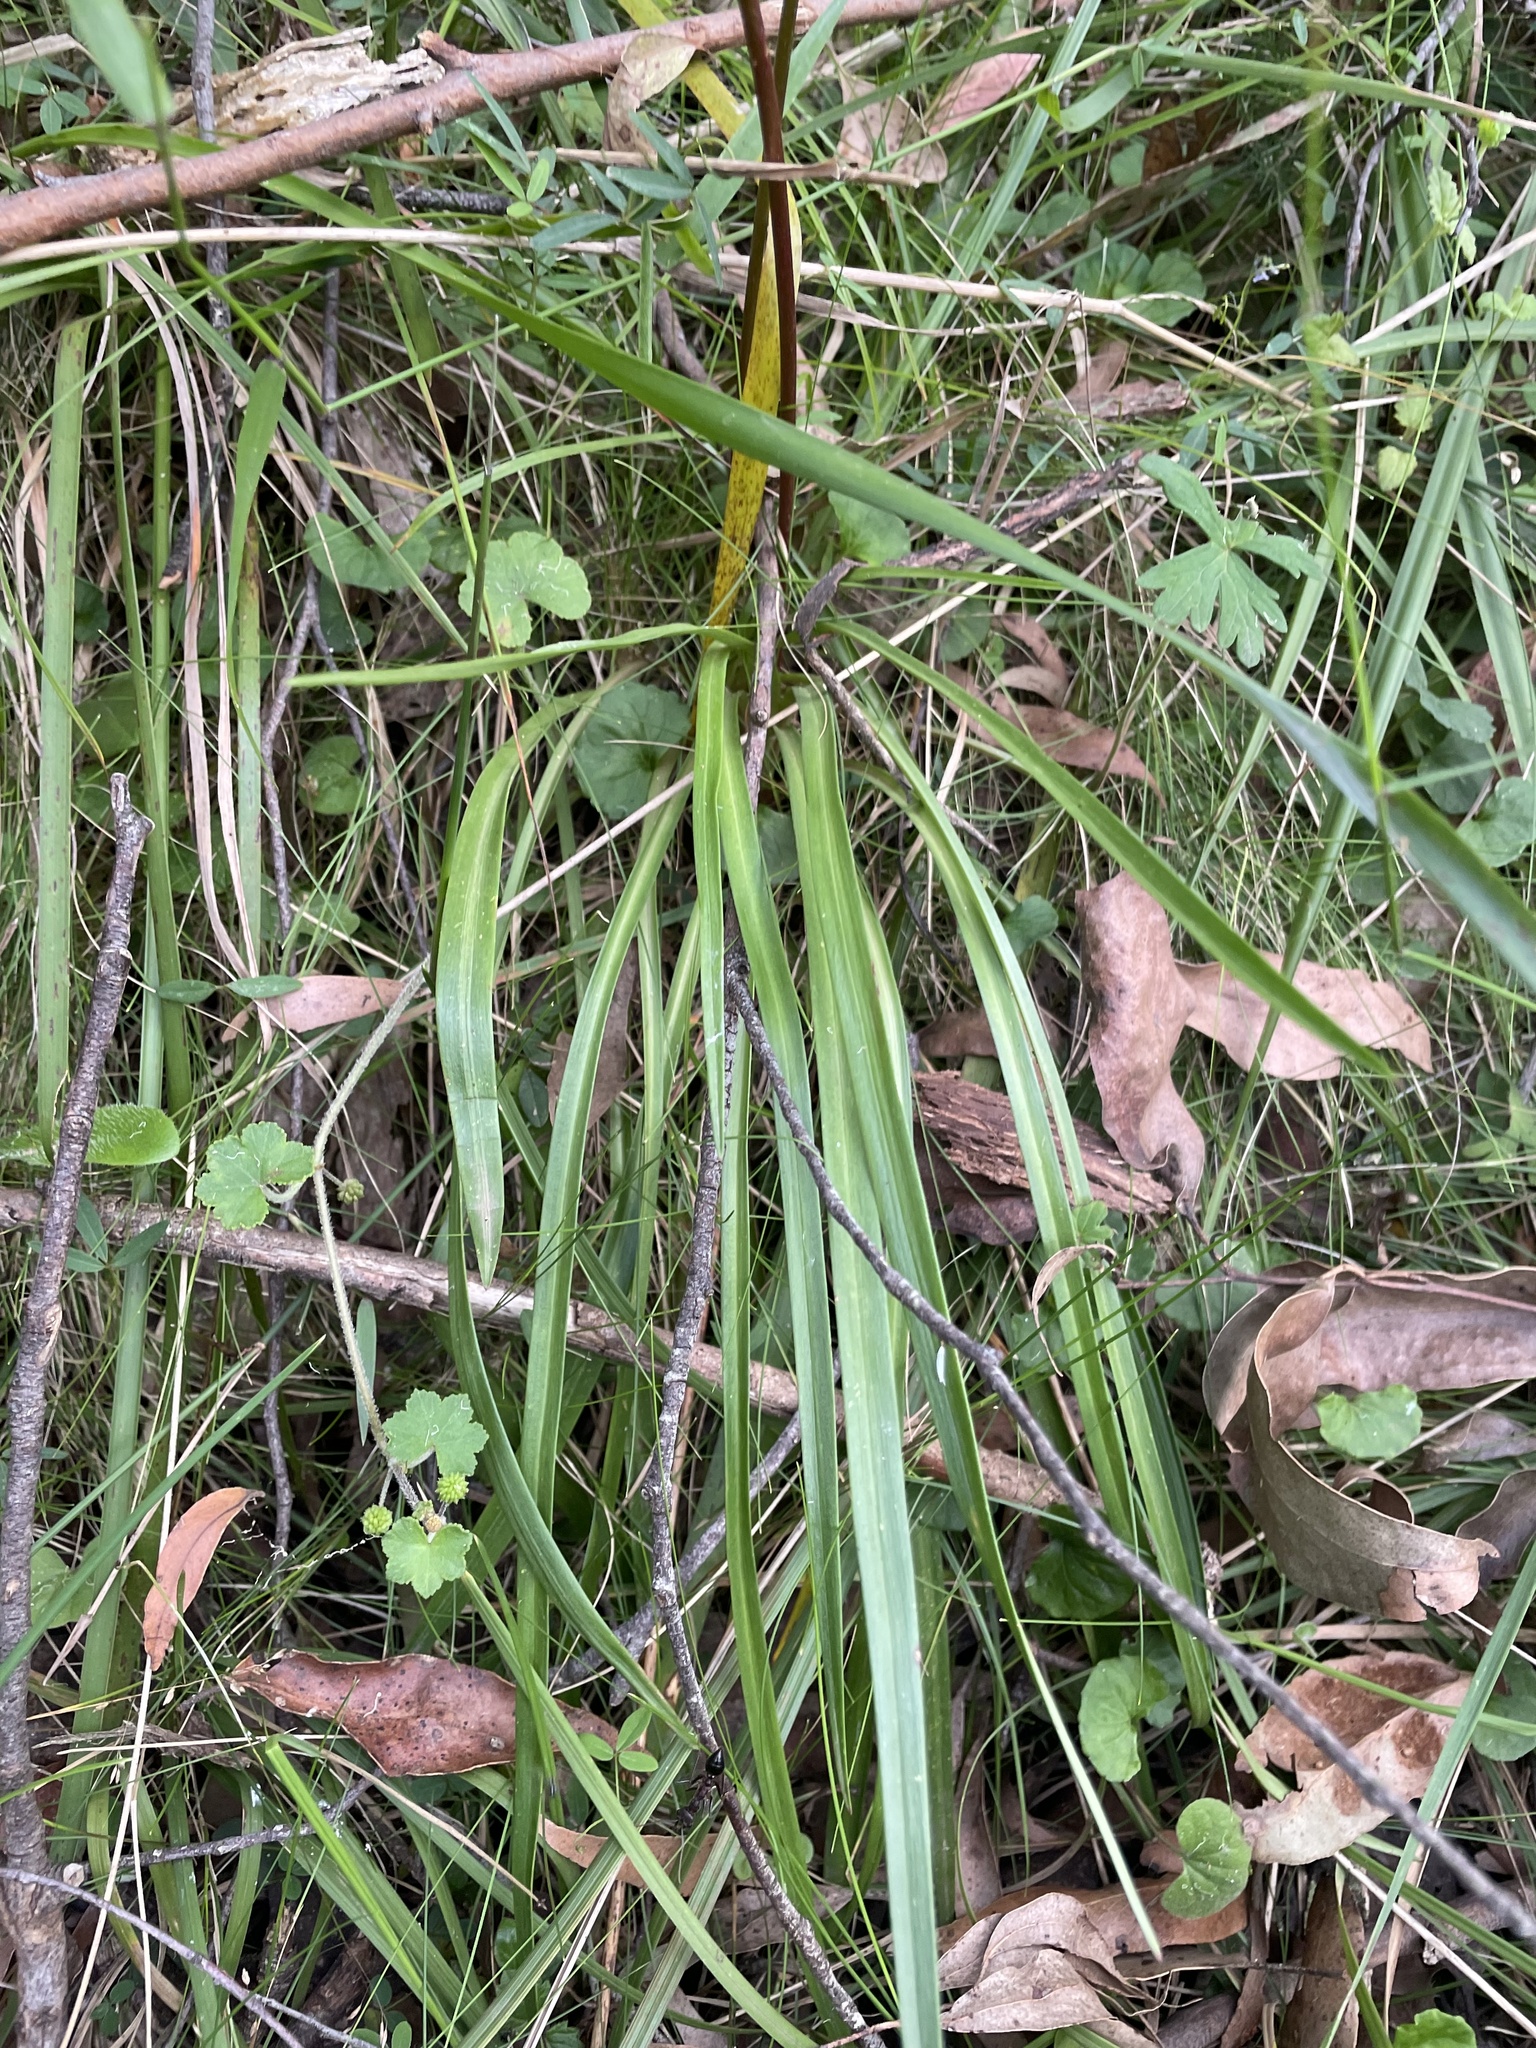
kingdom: Plantae
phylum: Tracheophyta
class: Magnoliopsida
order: Asterales
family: Stylidiaceae
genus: Stylidium
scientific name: Stylidium armeria
